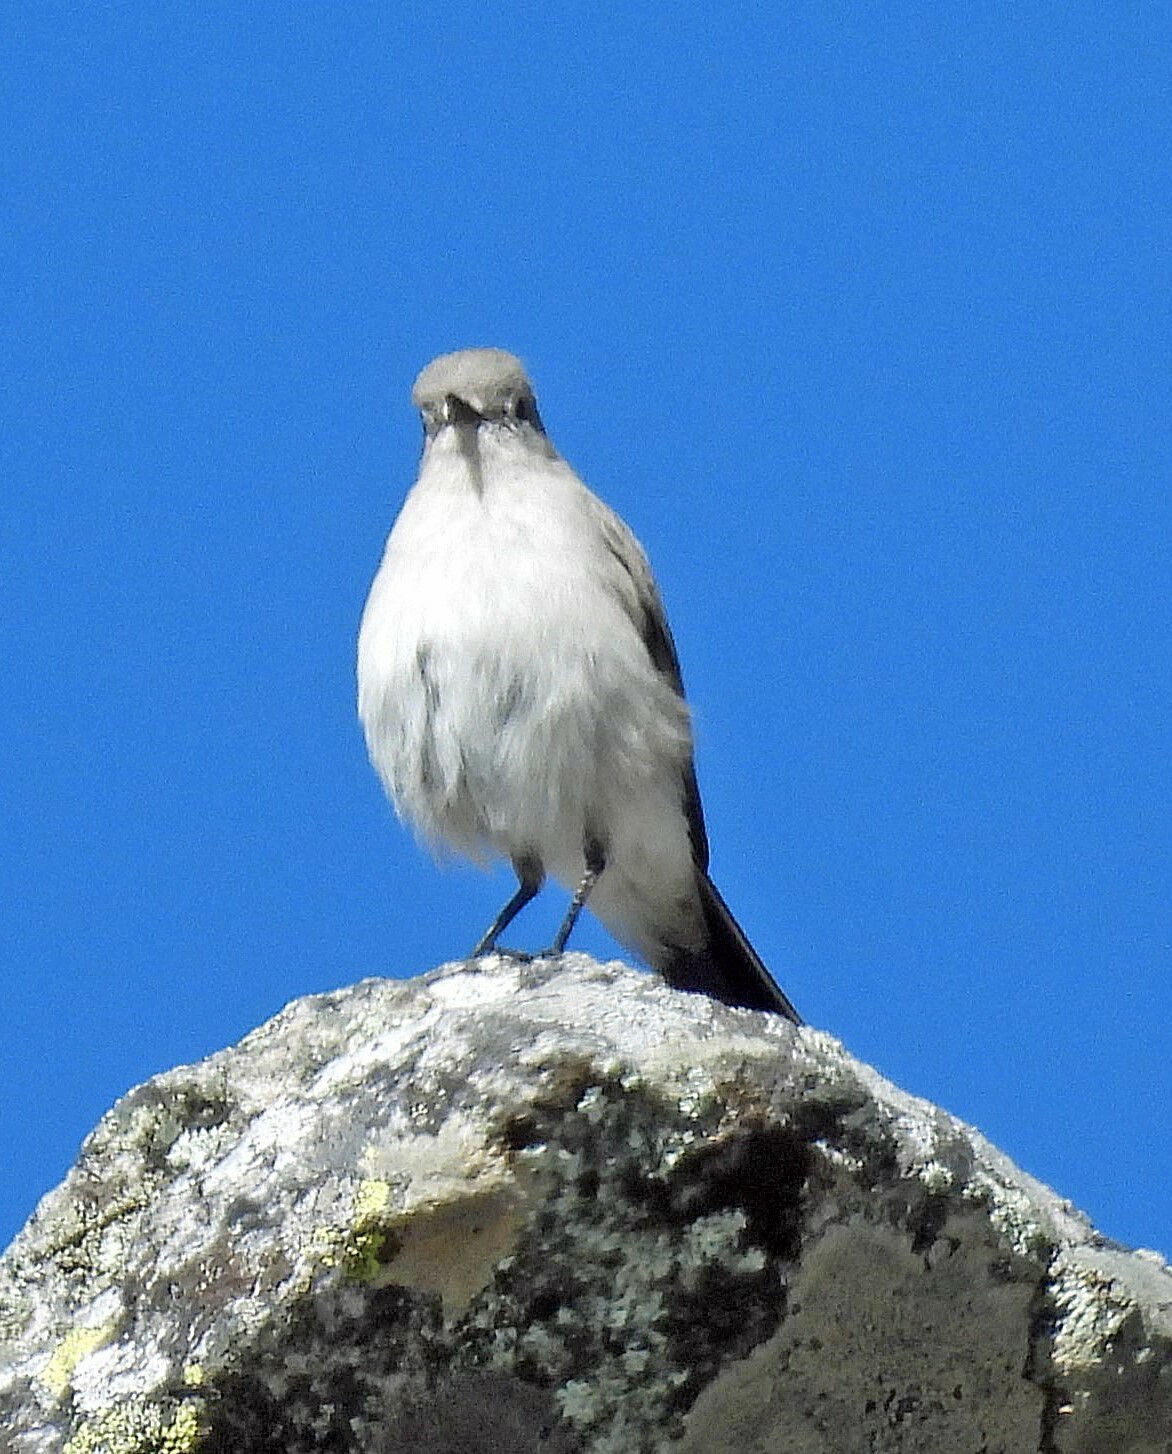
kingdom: Animalia
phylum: Chordata
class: Aves
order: Passeriformes
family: Tyrannidae
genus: Muscisaxicola
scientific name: Muscisaxicola cinereus
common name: Cinereous ground tyrant
